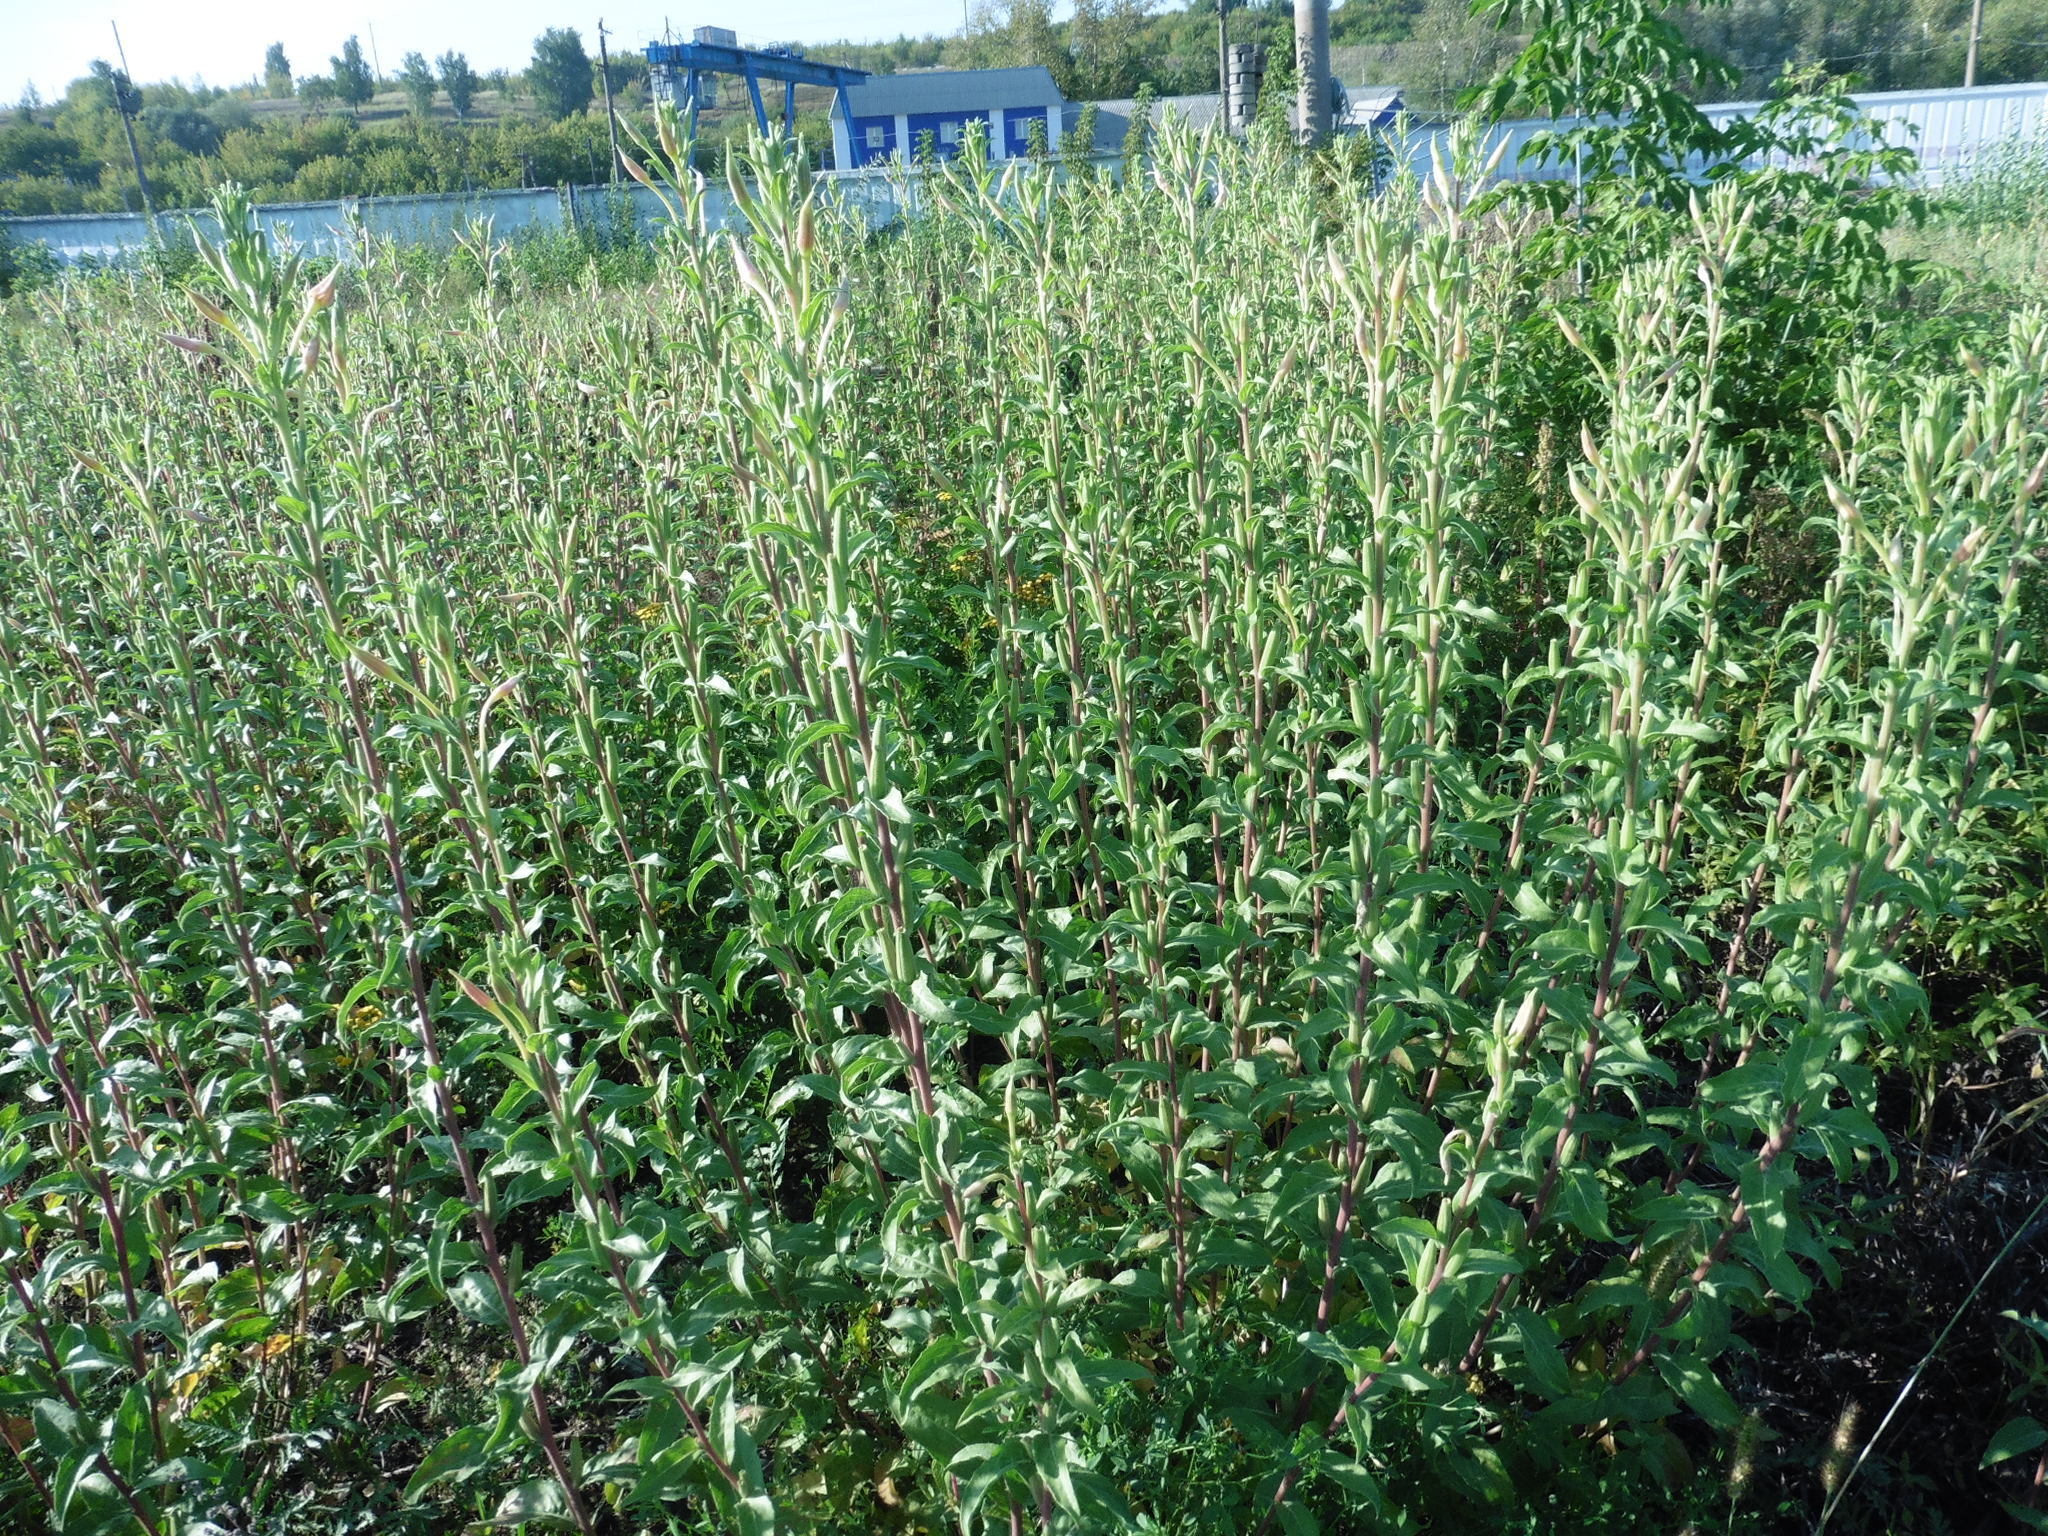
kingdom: Plantae
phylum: Tracheophyta
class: Magnoliopsida
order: Myrtales
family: Onagraceae
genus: Oenothera
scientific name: Oenothera villosa
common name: Hairy evening-primrose
